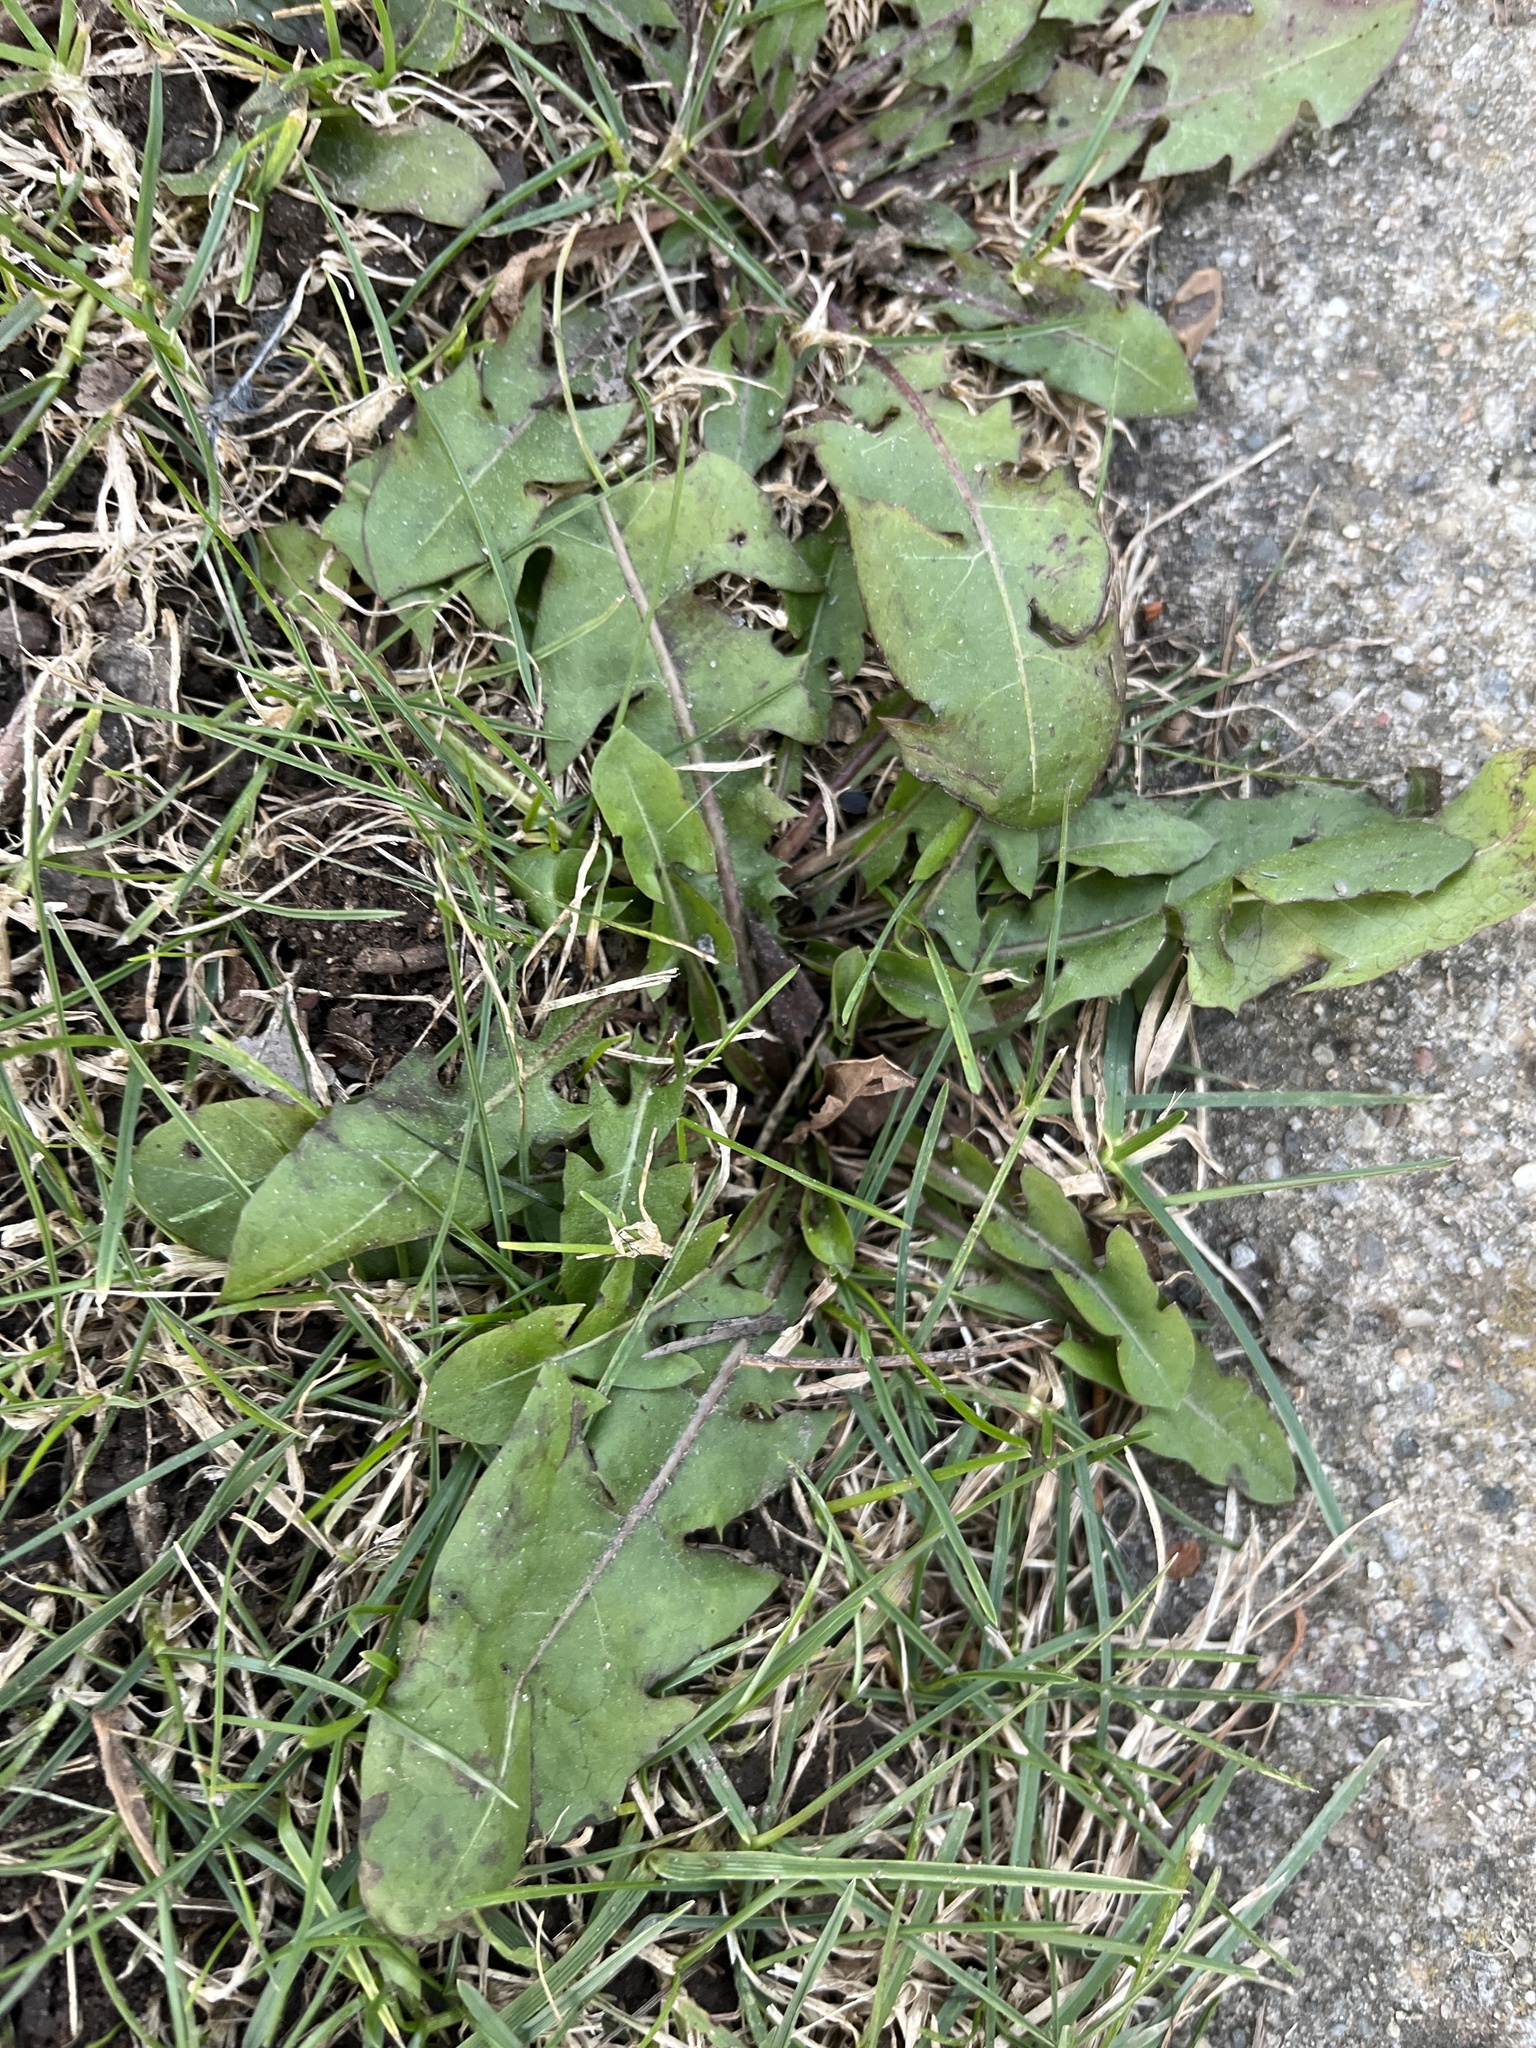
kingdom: Plantae
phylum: Tracheophyta
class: Magnoliopsida
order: Asterales
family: Asteraceae
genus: Taraxacum
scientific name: Taraxacum
